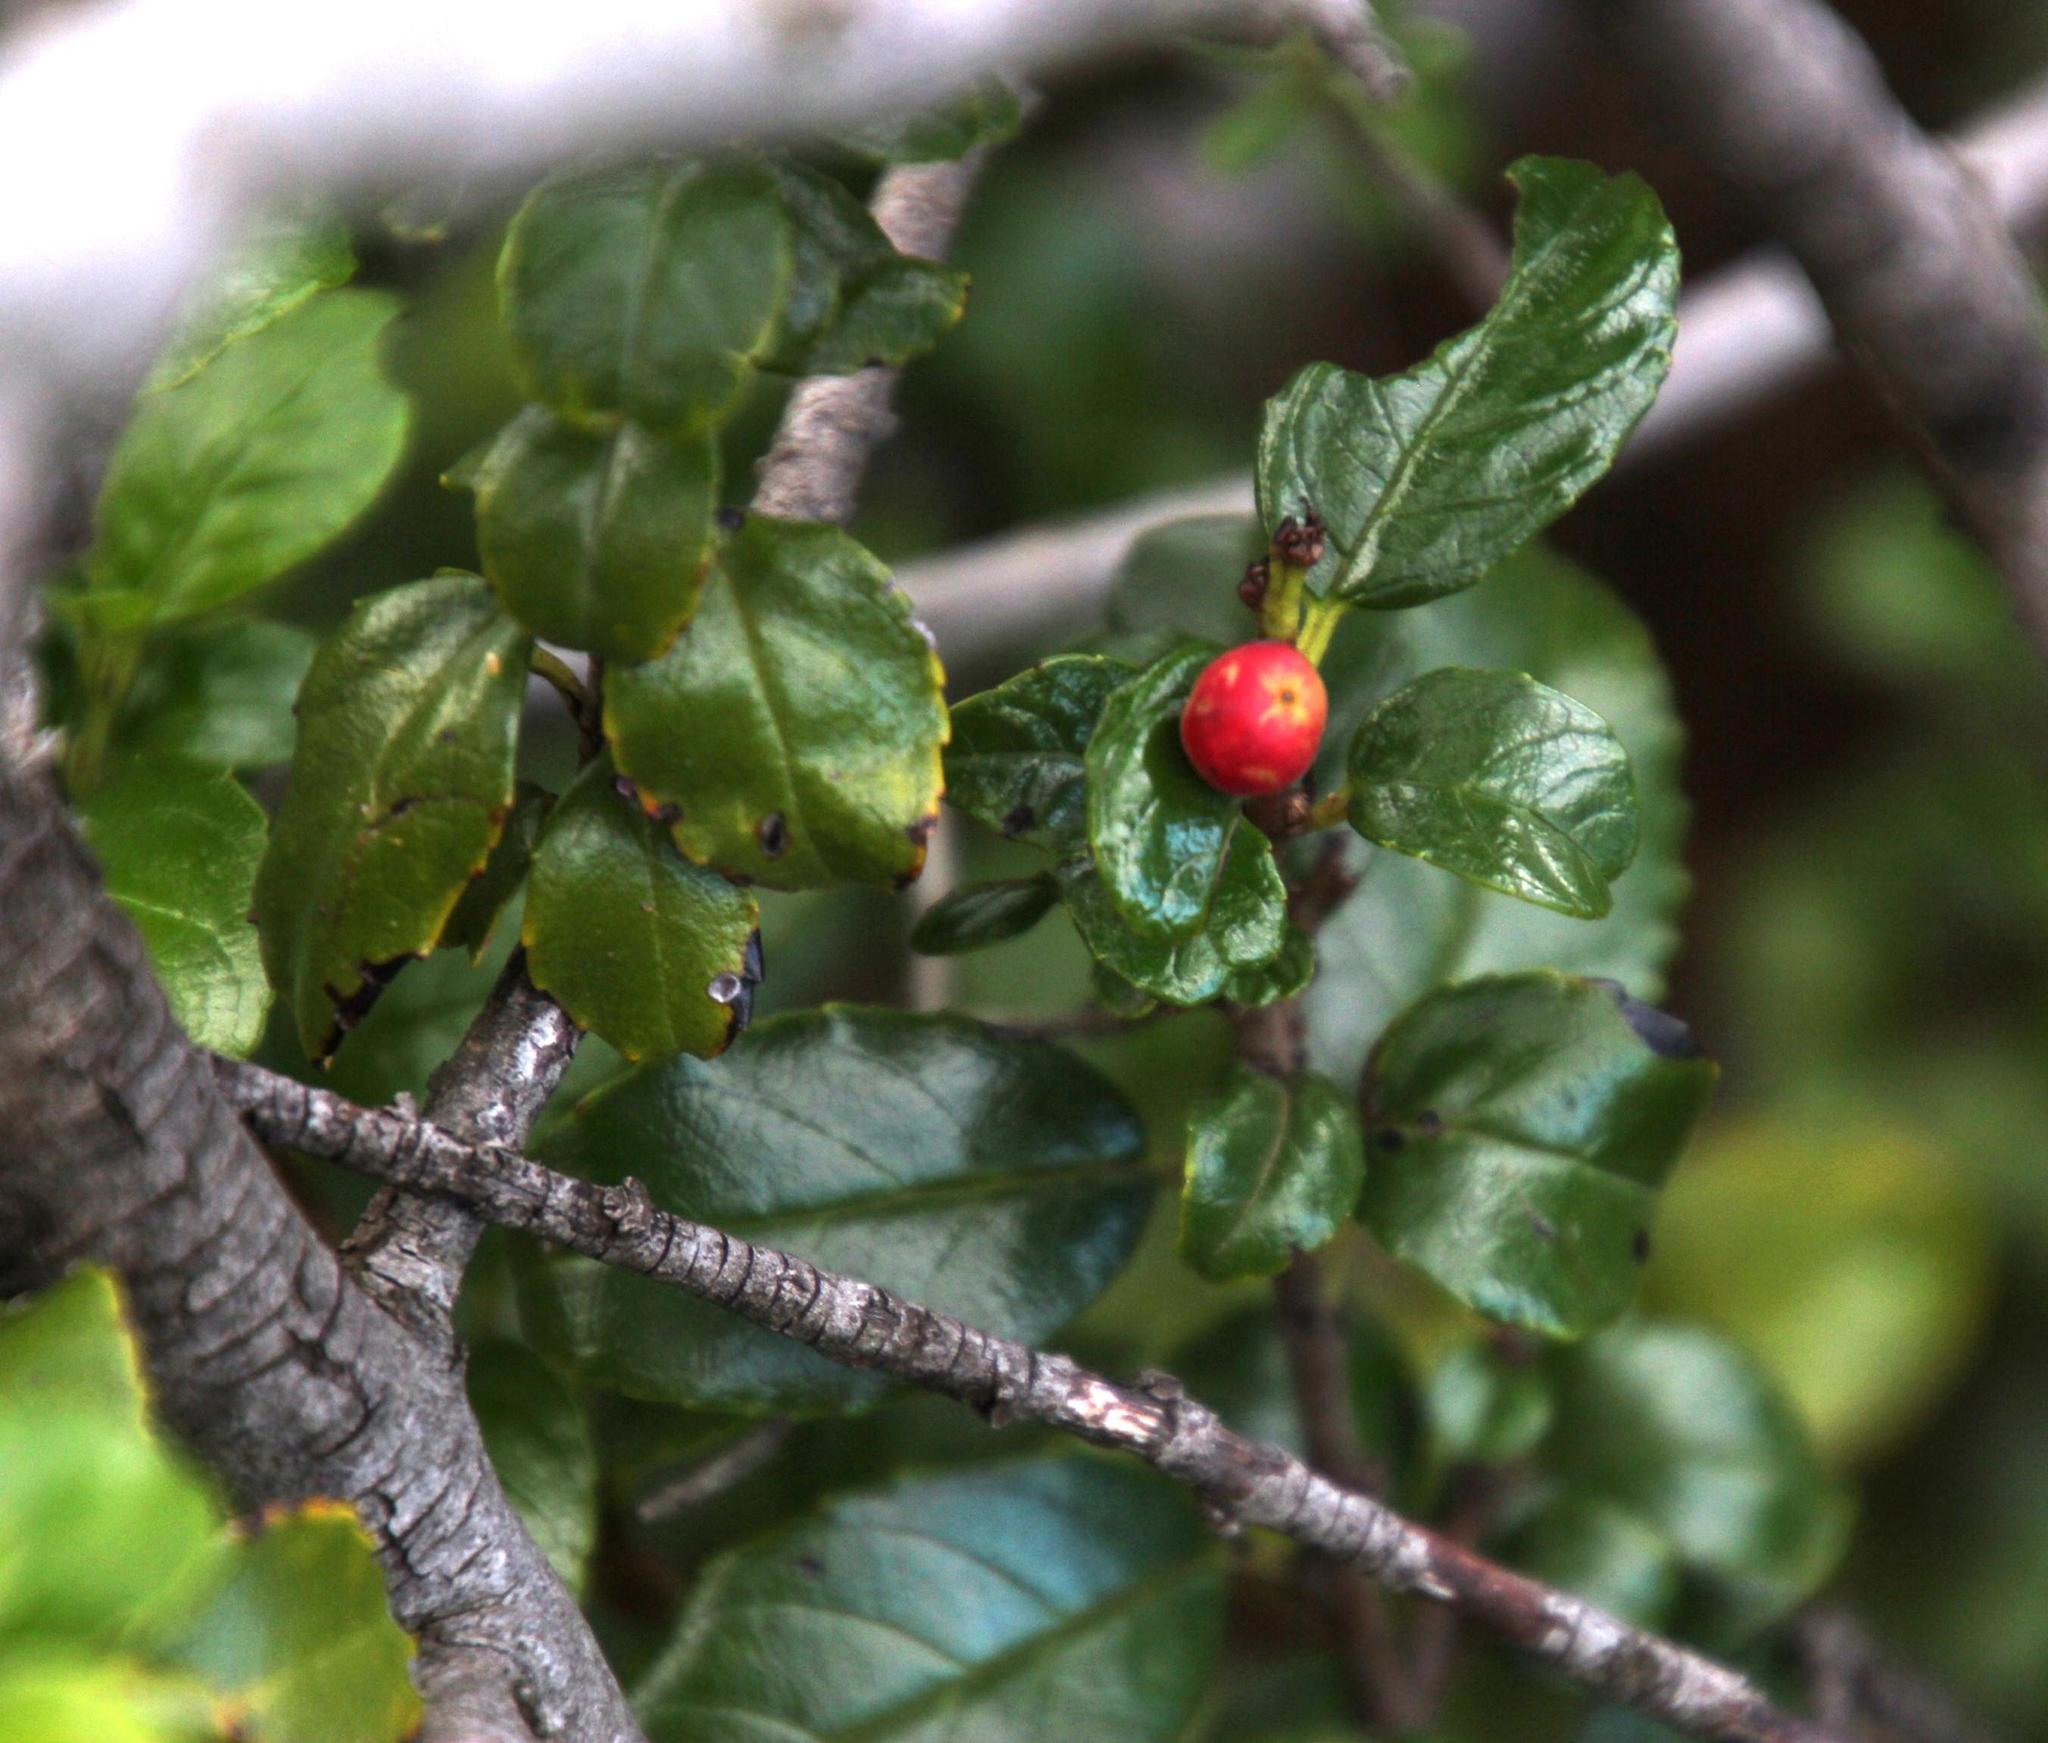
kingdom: Plantae
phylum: Tracheophyta
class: Magnoliopsida
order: Rosales
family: Rhamnaceae
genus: Rhamnus
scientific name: Rhamnus prinoides
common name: Dogwood
